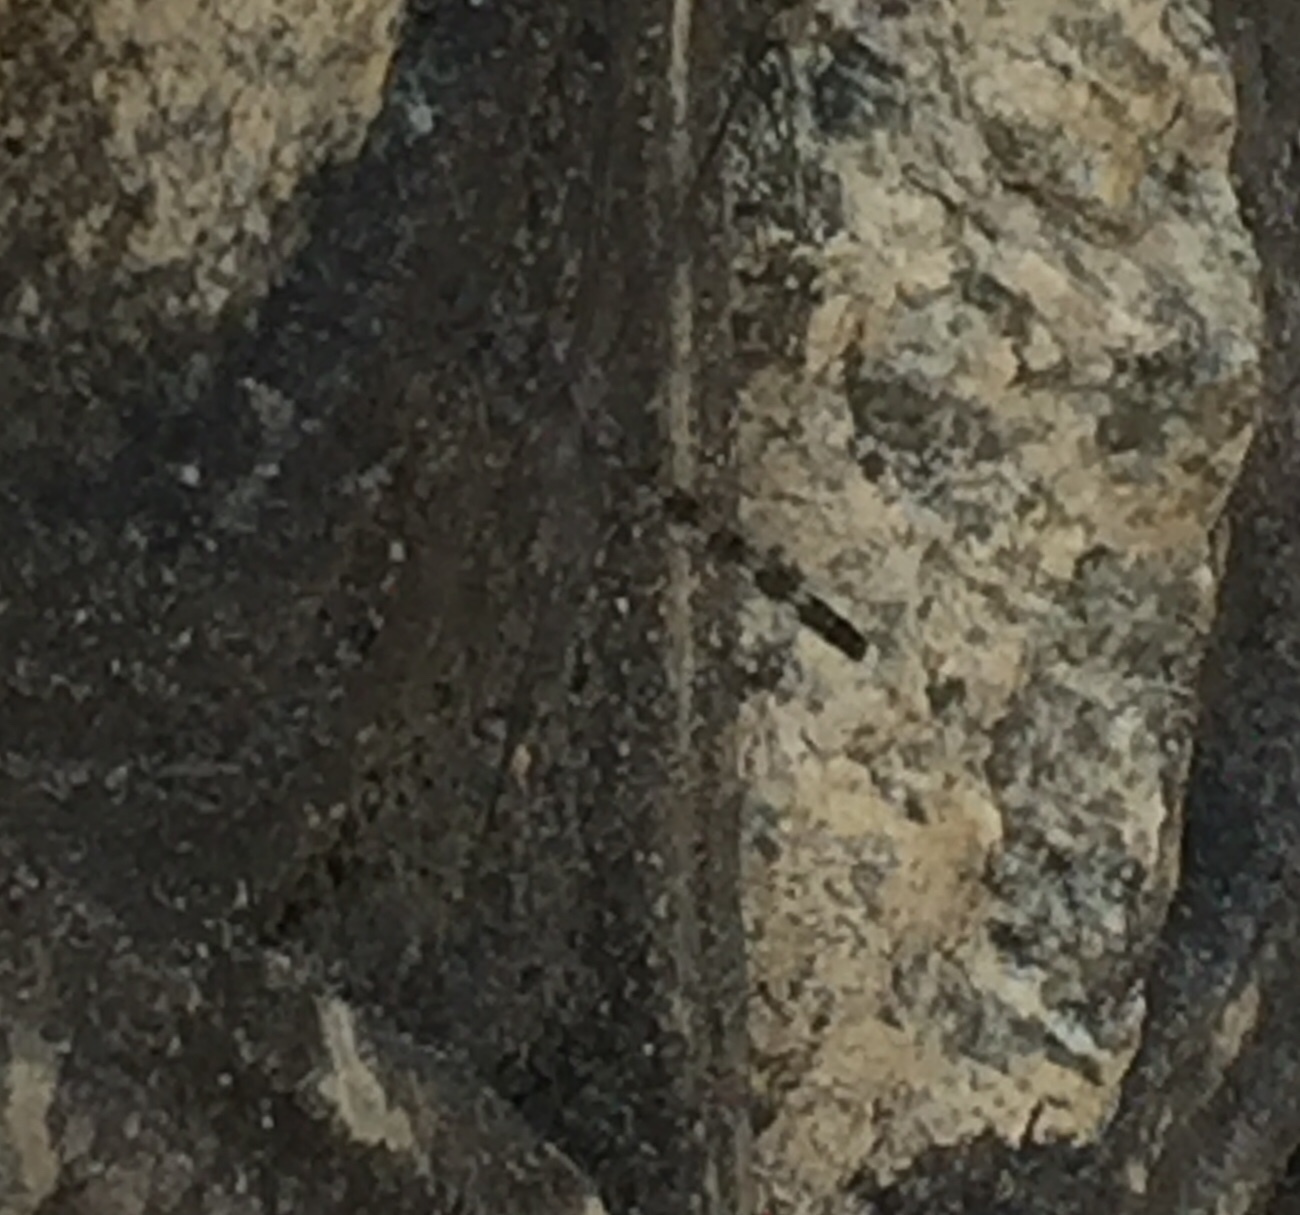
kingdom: Animalia
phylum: Arthropoda
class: Insecta
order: Odonata
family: Libellulidae
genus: Bradinopyga
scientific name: Bradinopyga geminata
